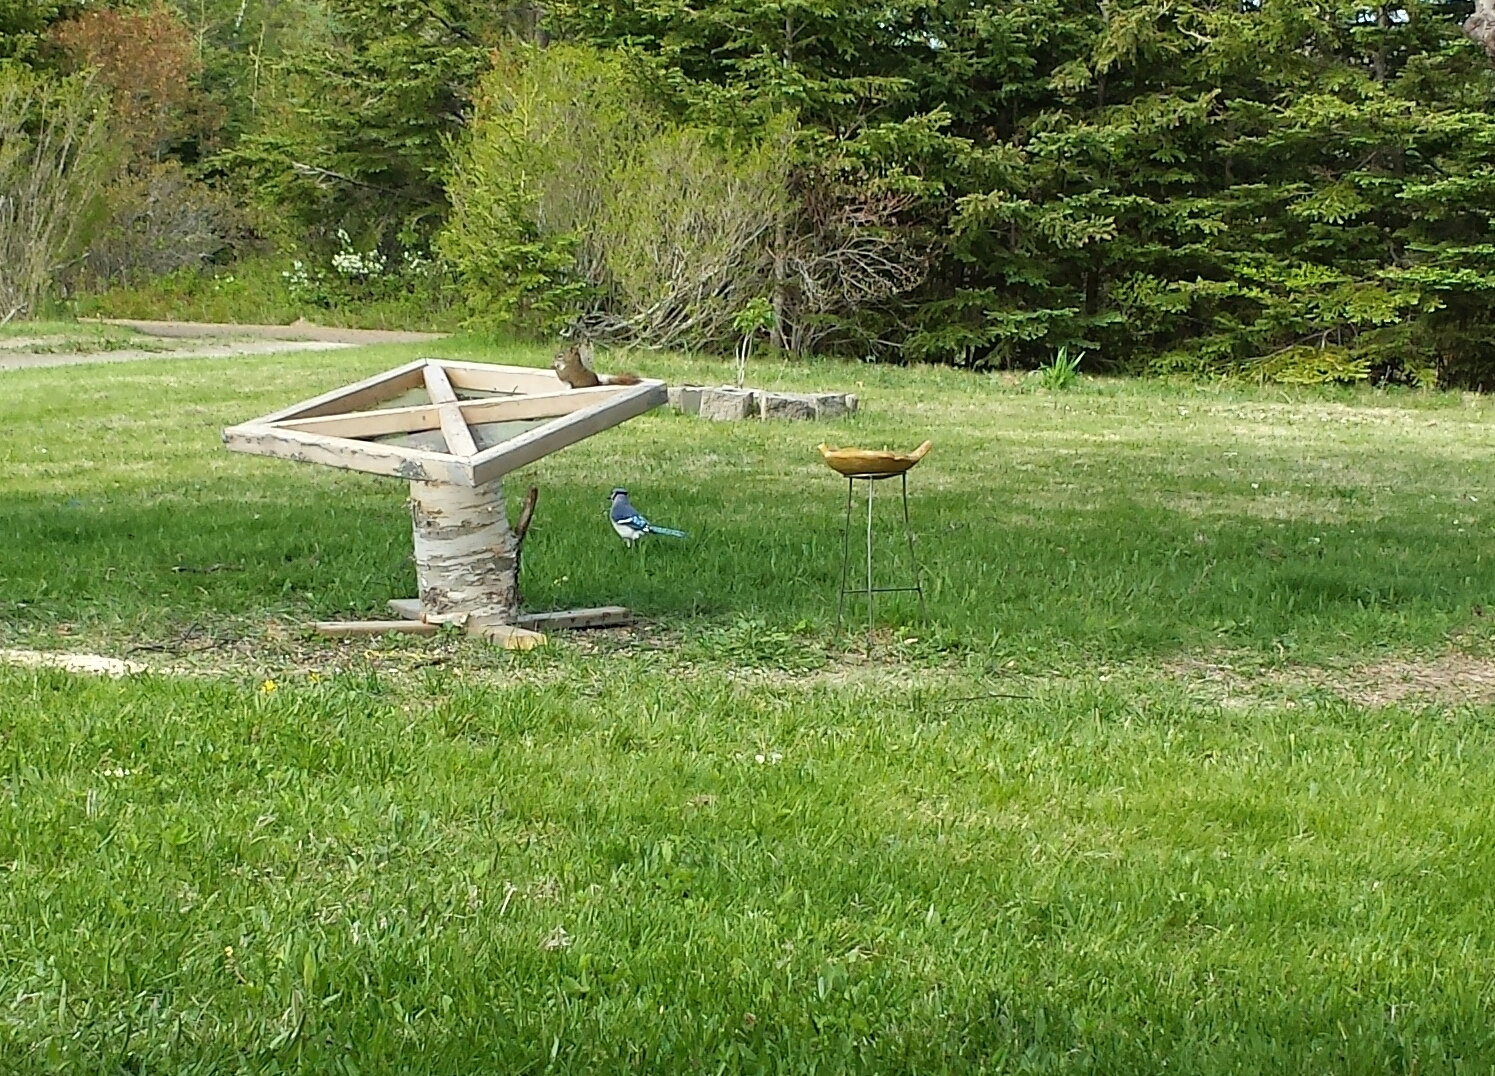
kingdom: Animalia
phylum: Chordata
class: Aves
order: Passeriformes
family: Corvidae
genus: Cyanocitta
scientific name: Cyanocitta cristata
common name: Blue jay
